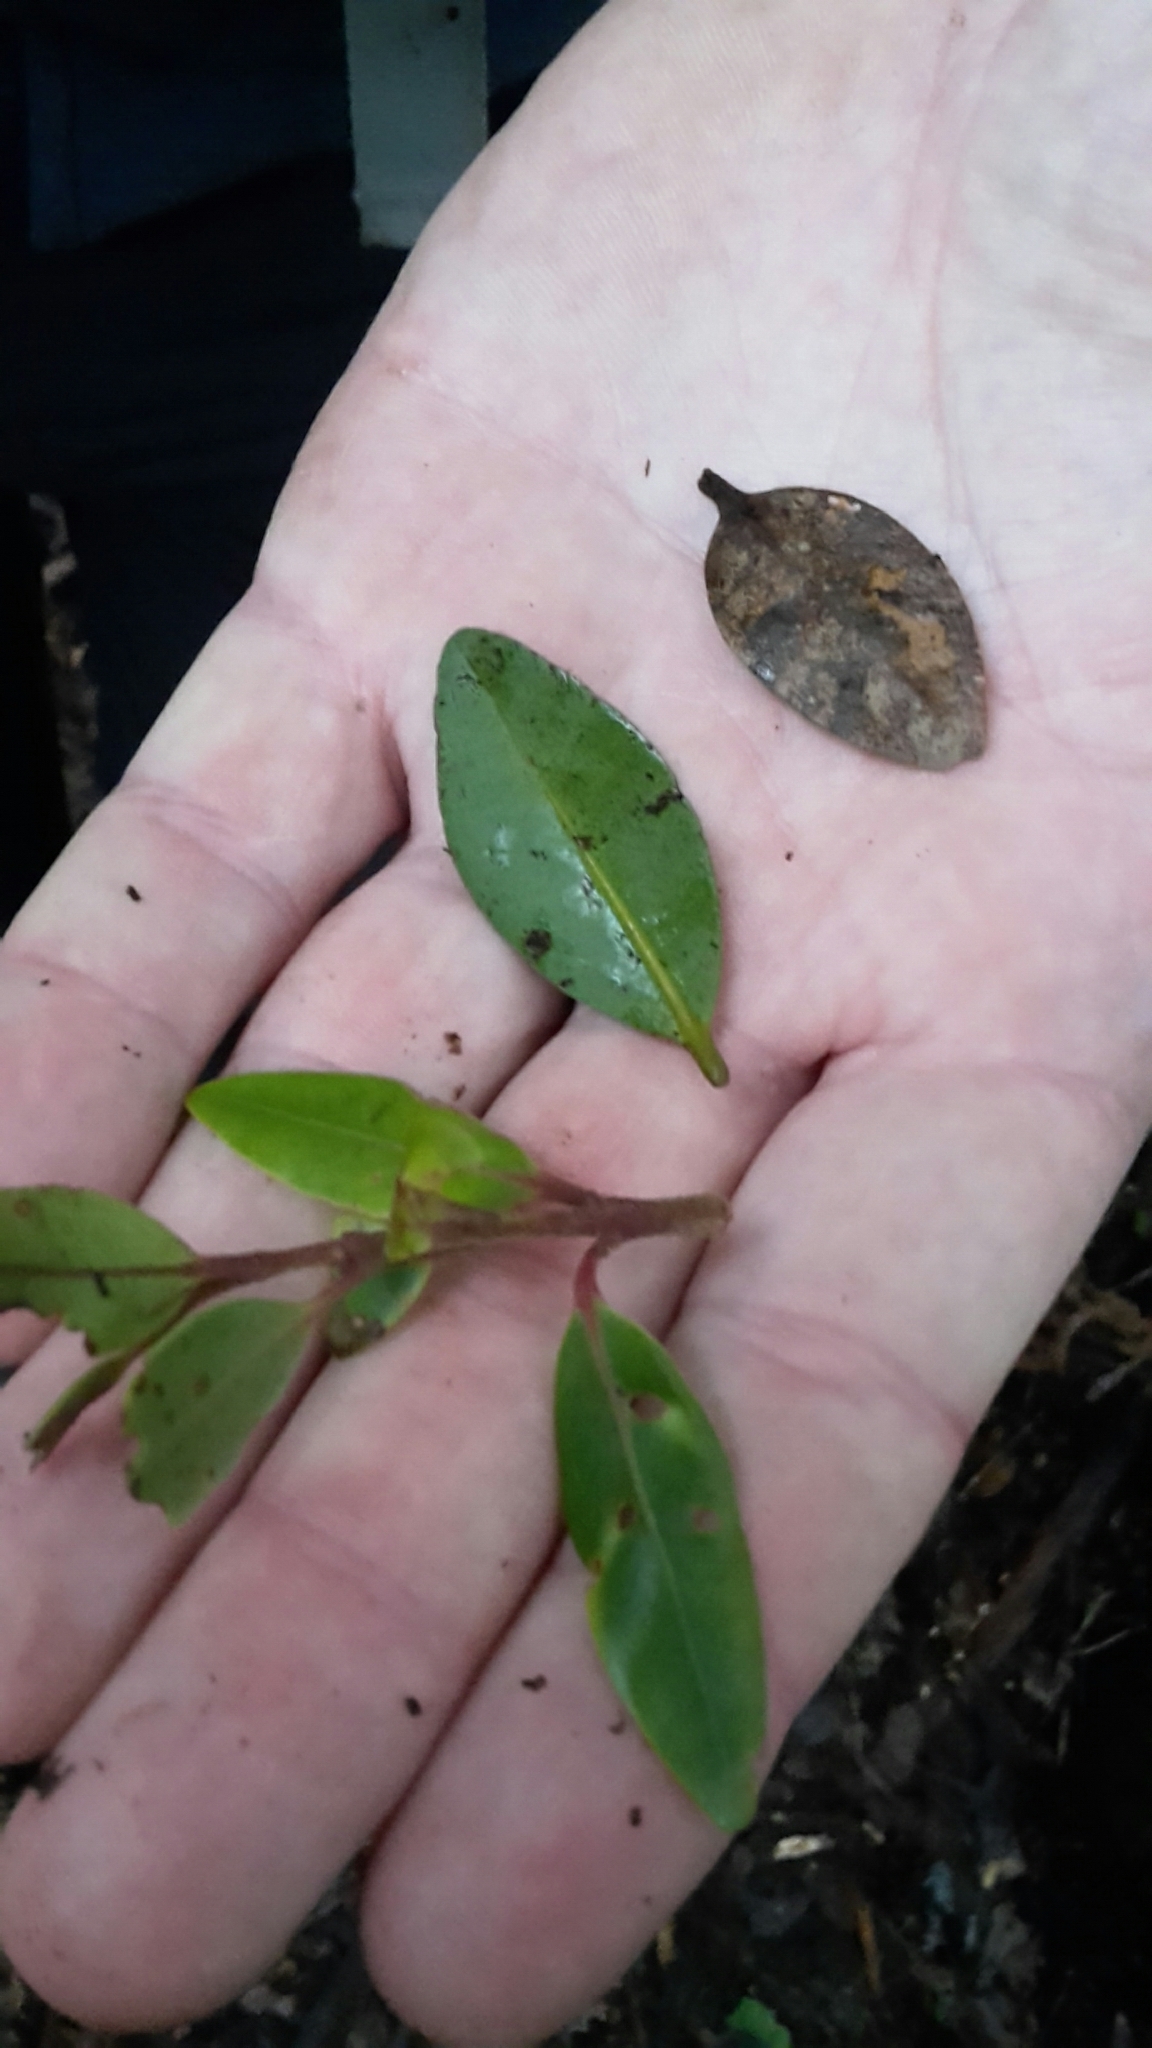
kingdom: Plantae
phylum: Tracheophyta
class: Magnoliopsida
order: Myrtales
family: Myrtaceae
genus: Metrosideros
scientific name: Metrosideros robusta
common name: Northern rata
